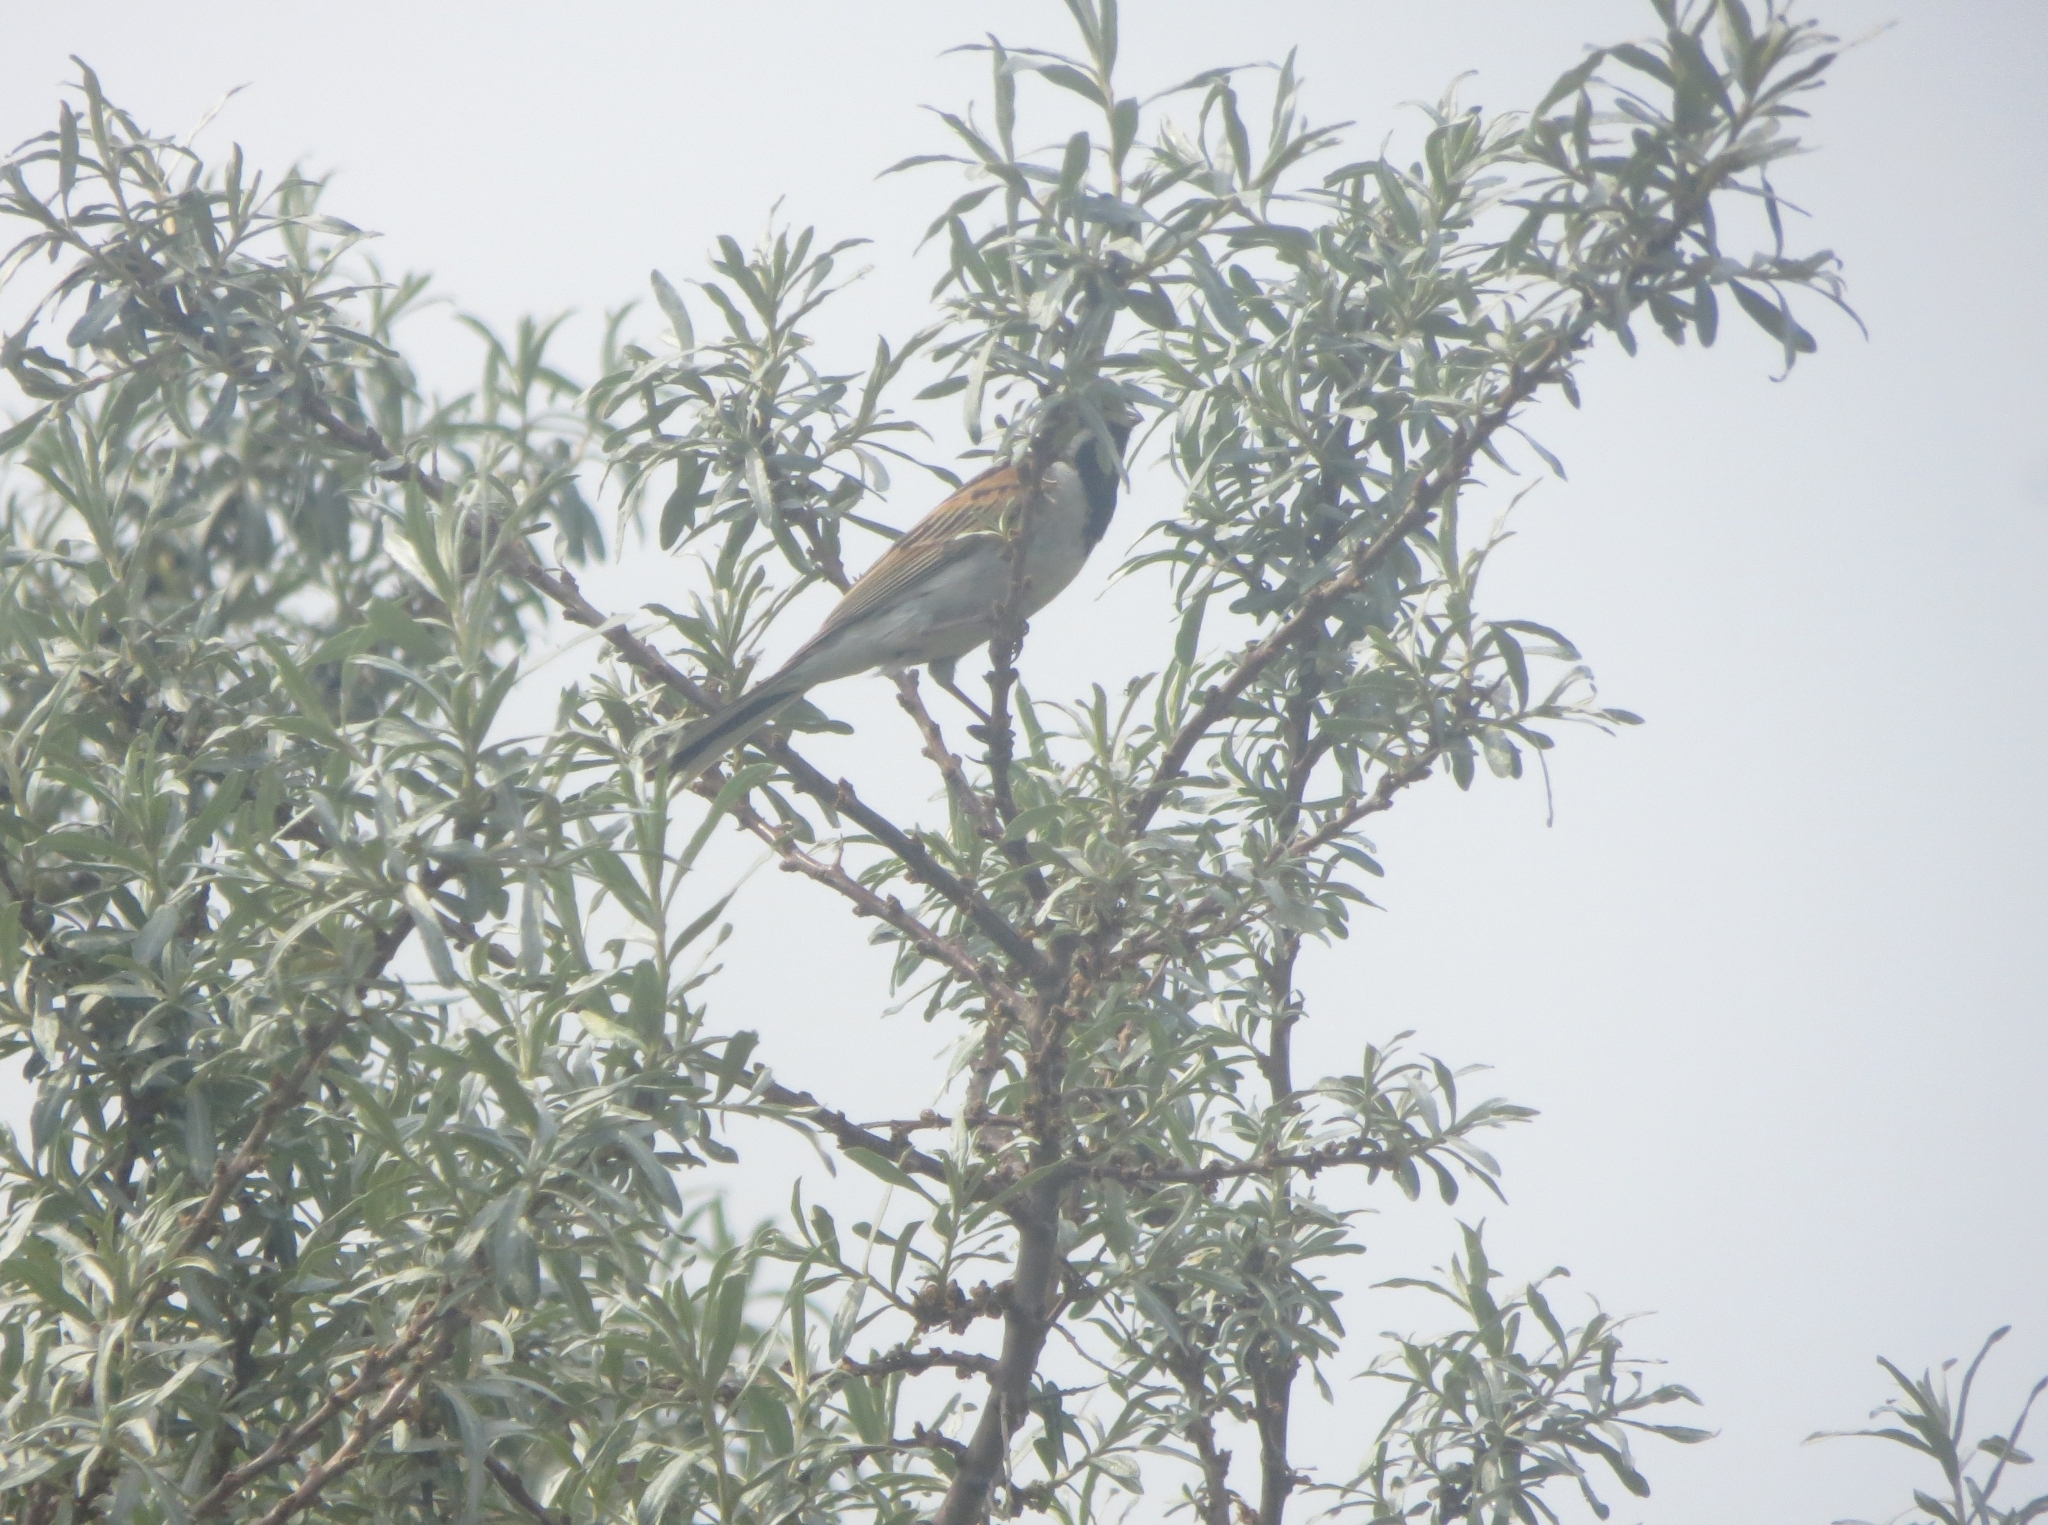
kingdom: Animalia
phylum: Chordata
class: Aves
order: Passeriformes
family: Emberizidae
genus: Emberiza
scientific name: Emberiza schoeniclus
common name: Reed bunting
